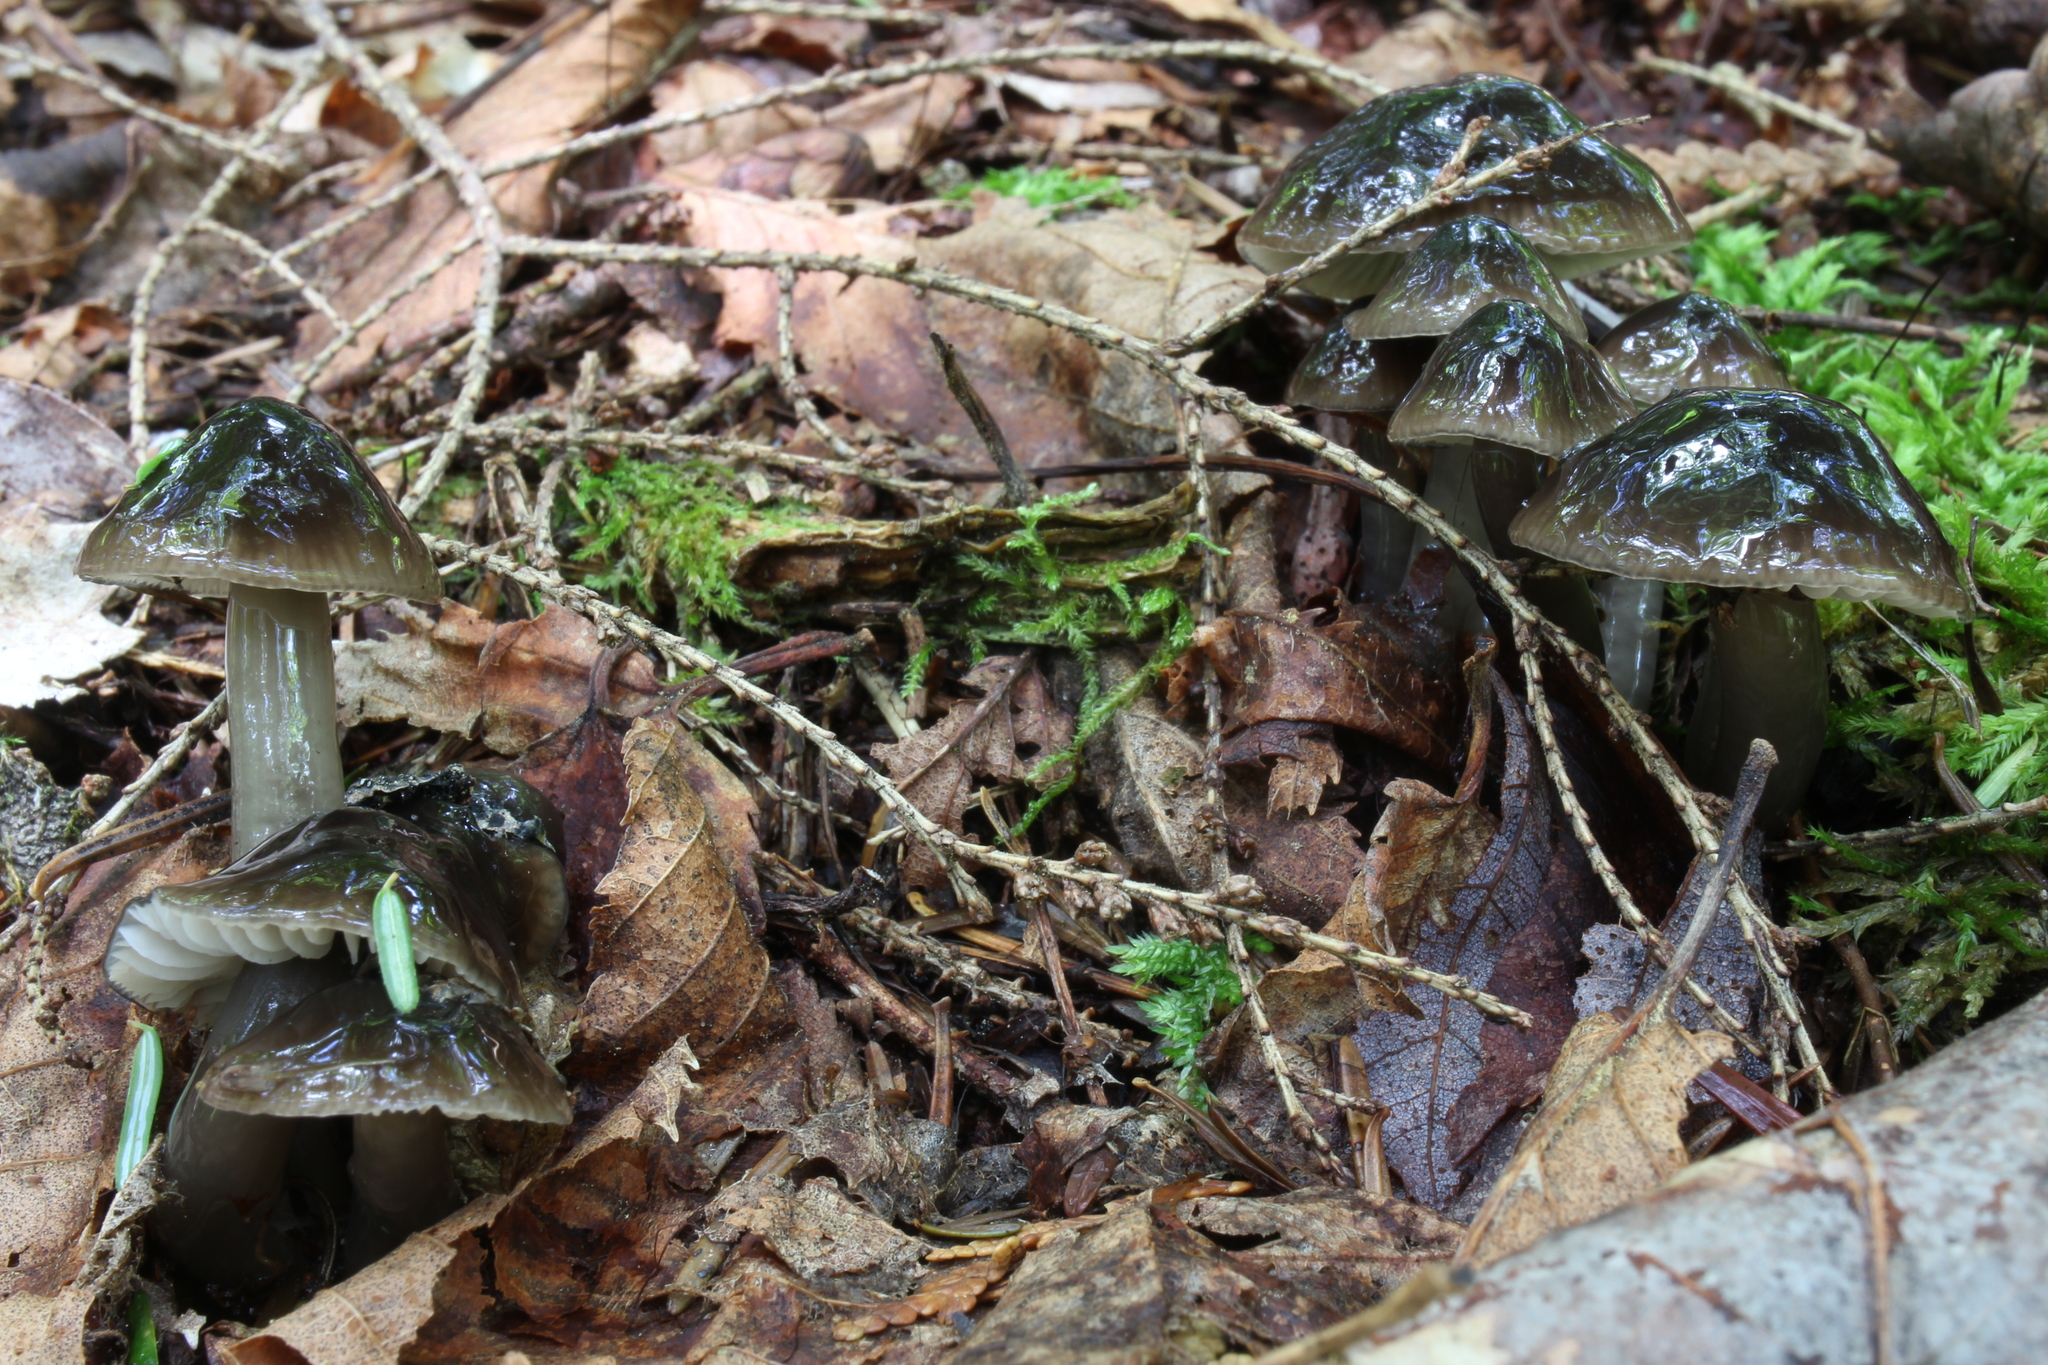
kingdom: Fungi
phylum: Basidiomycota
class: Agaricomycetes
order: Agaricales
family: Hygrophoraceae
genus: Gliophorus
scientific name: Gliophorus irrigatus
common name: Slimy waxcap
